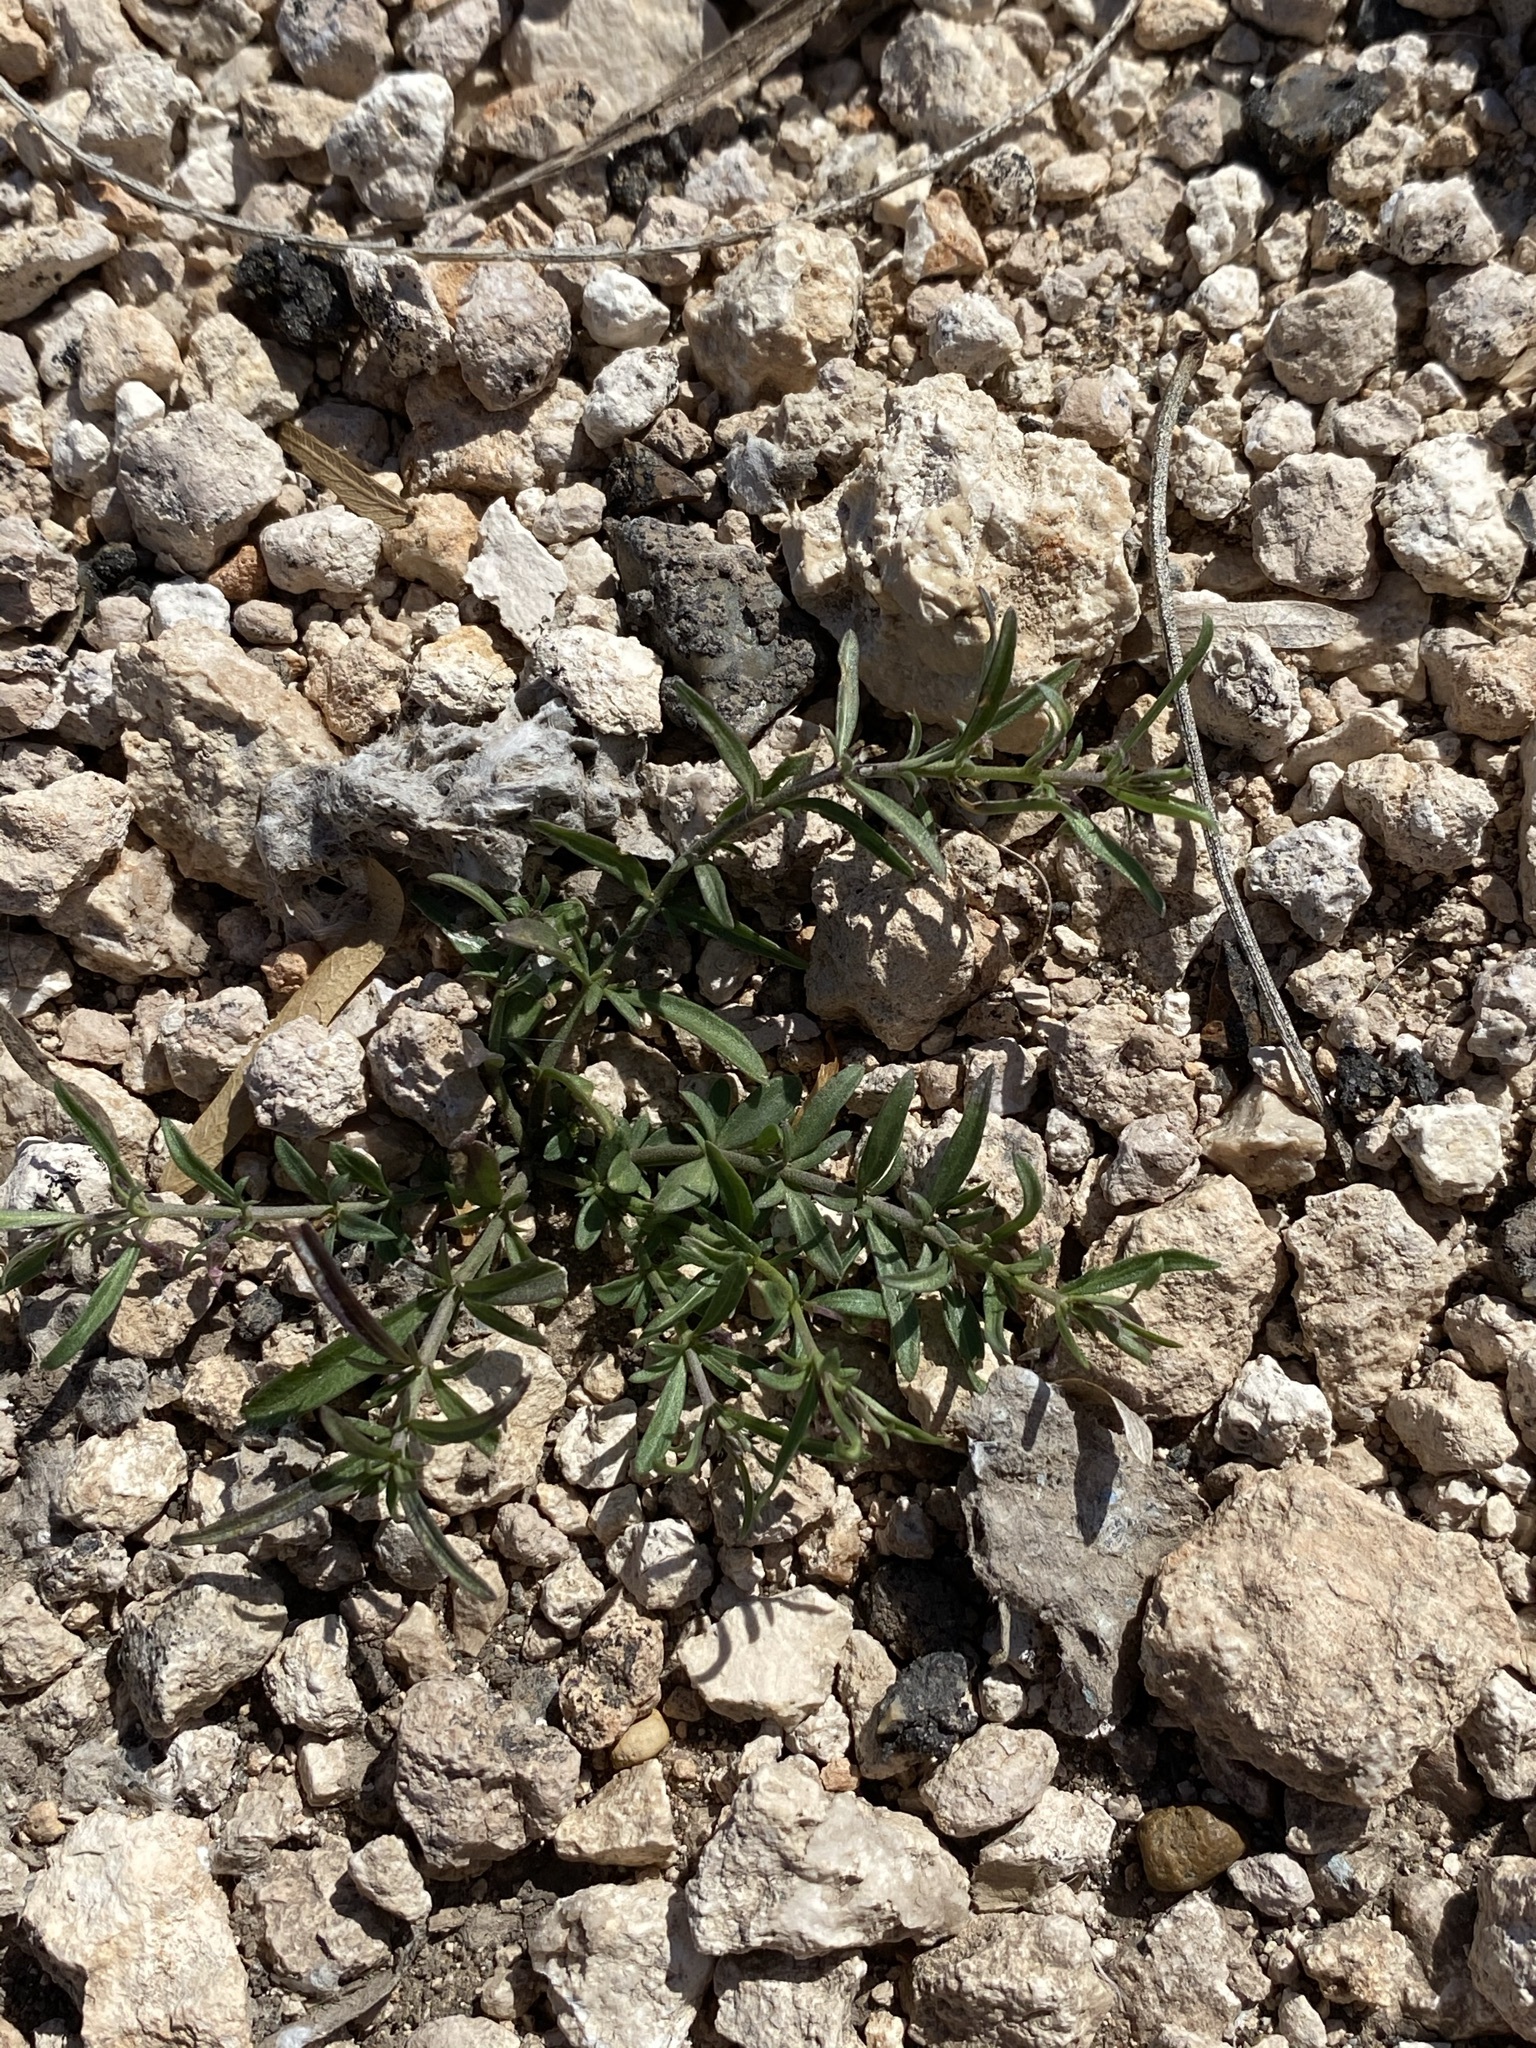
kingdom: Plantae
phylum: Tracheophyta
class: Magnoliopsida
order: Malpighiales
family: Violaceae
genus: Pombalia
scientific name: Pombalia verticillata
